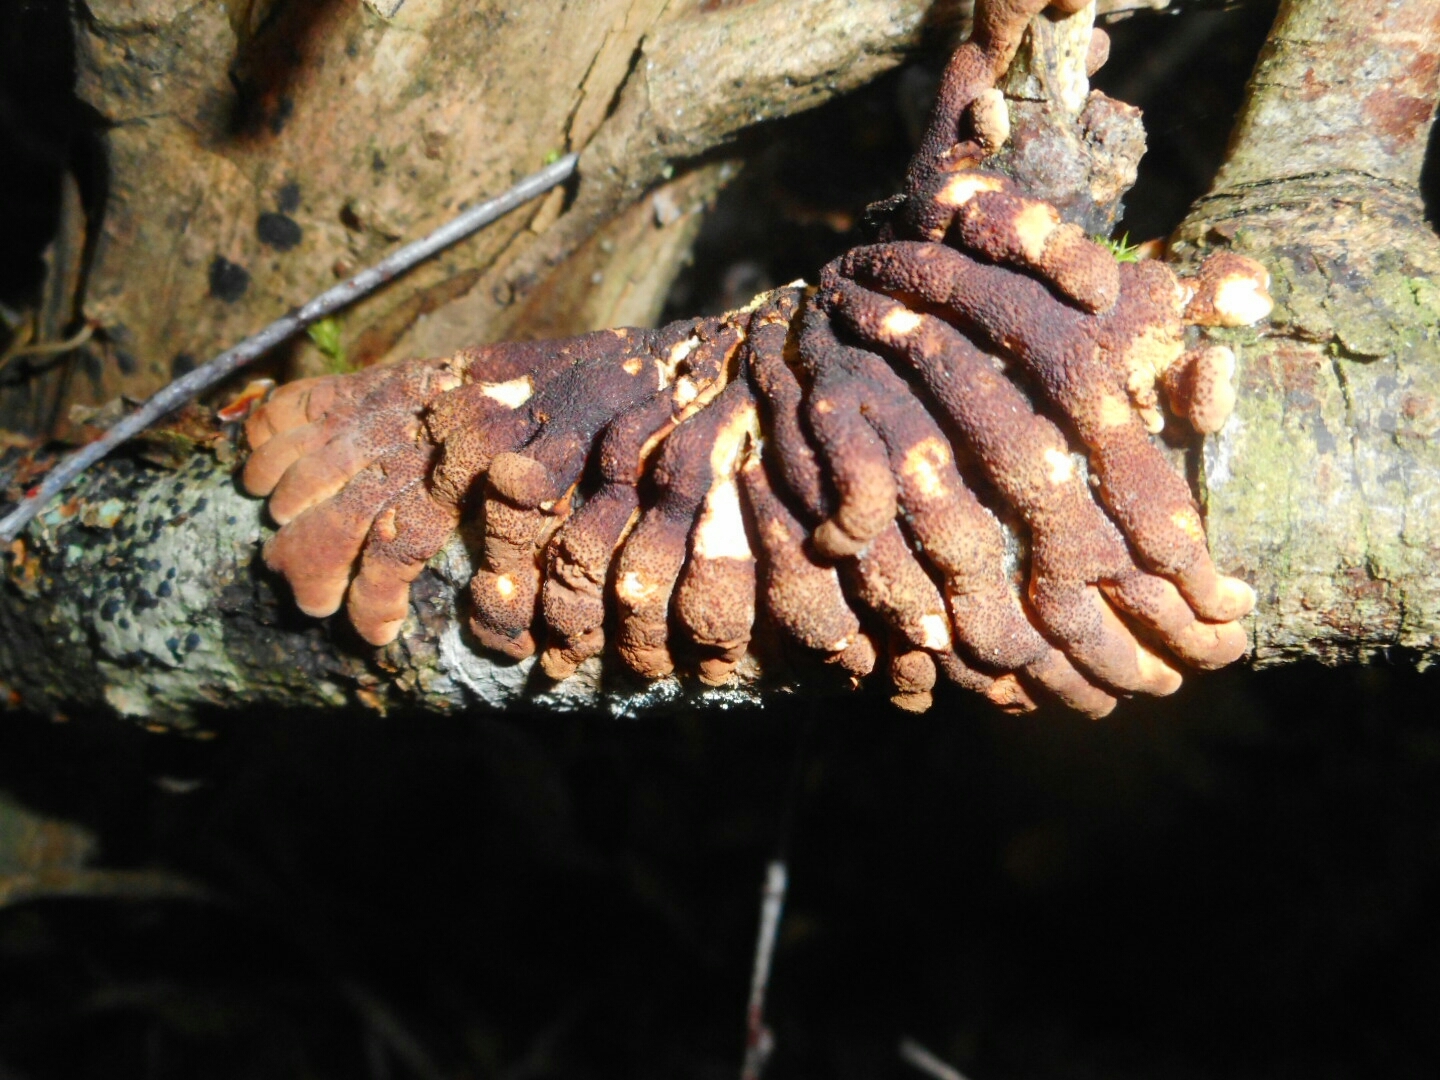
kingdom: Fungi
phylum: Ascomycota
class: Sordariomycetes
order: Hypocreales
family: Hypocreaceae
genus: Hypocreopsis
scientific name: Hypocreopsis lichenoides
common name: Willow gloves
